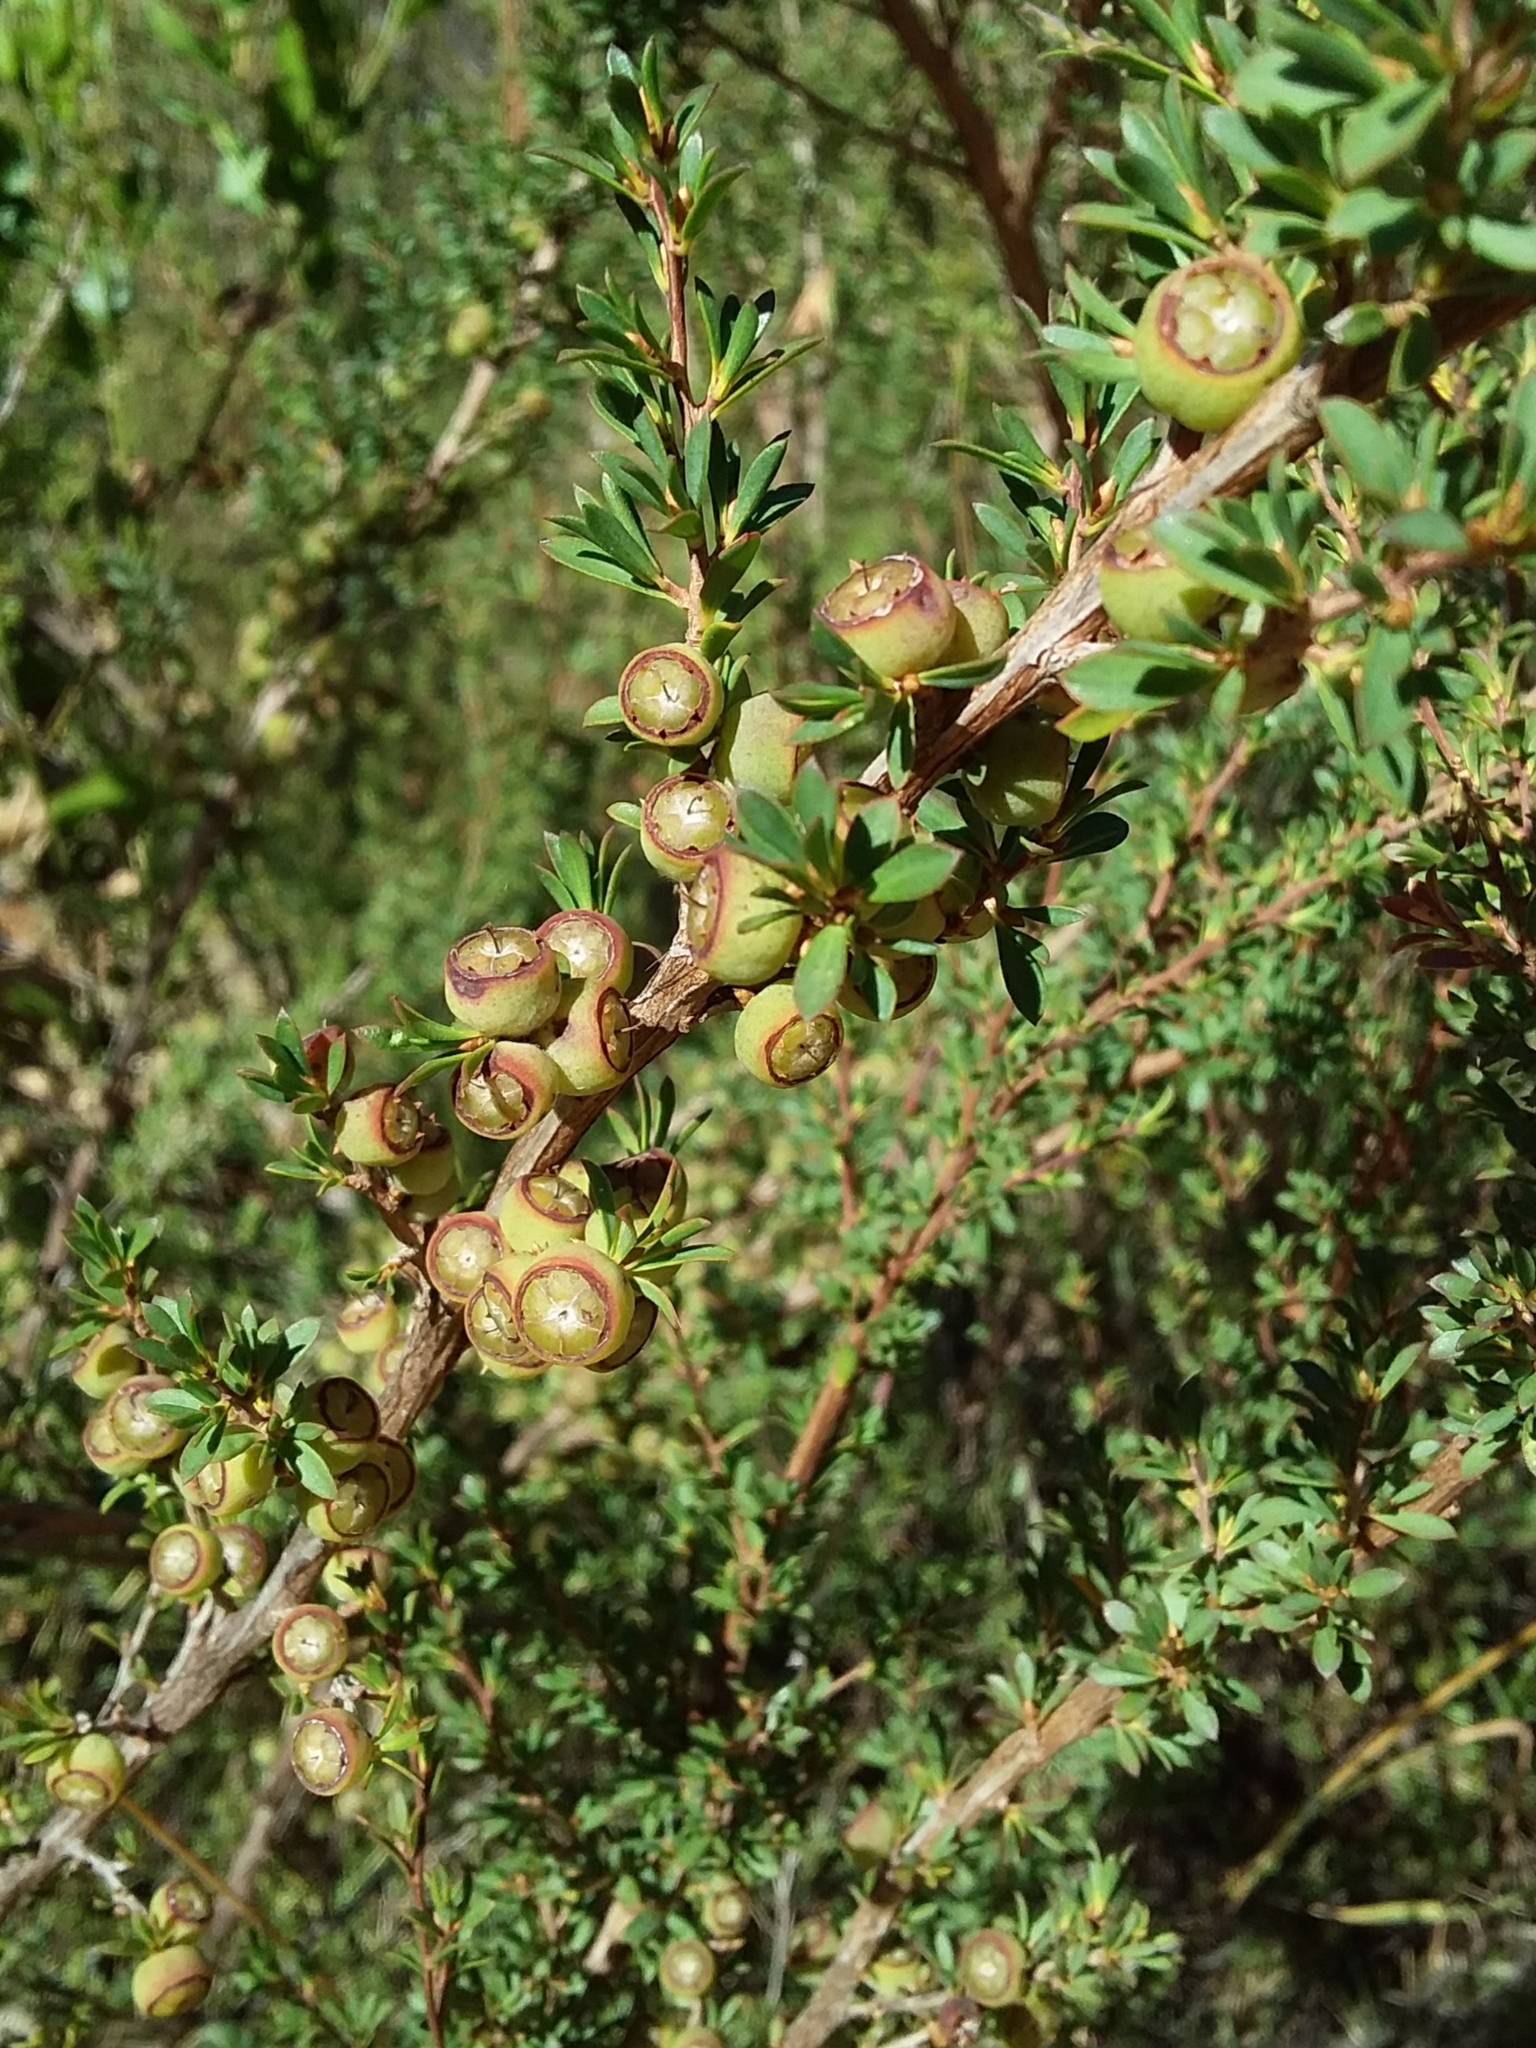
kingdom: Plantae
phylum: Tracheophyta
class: Magnoliopsida
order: Myrtales
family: Myrtaceae
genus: Leptospermum
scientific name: Leptospermum myrsinoides
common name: Heath teatree
